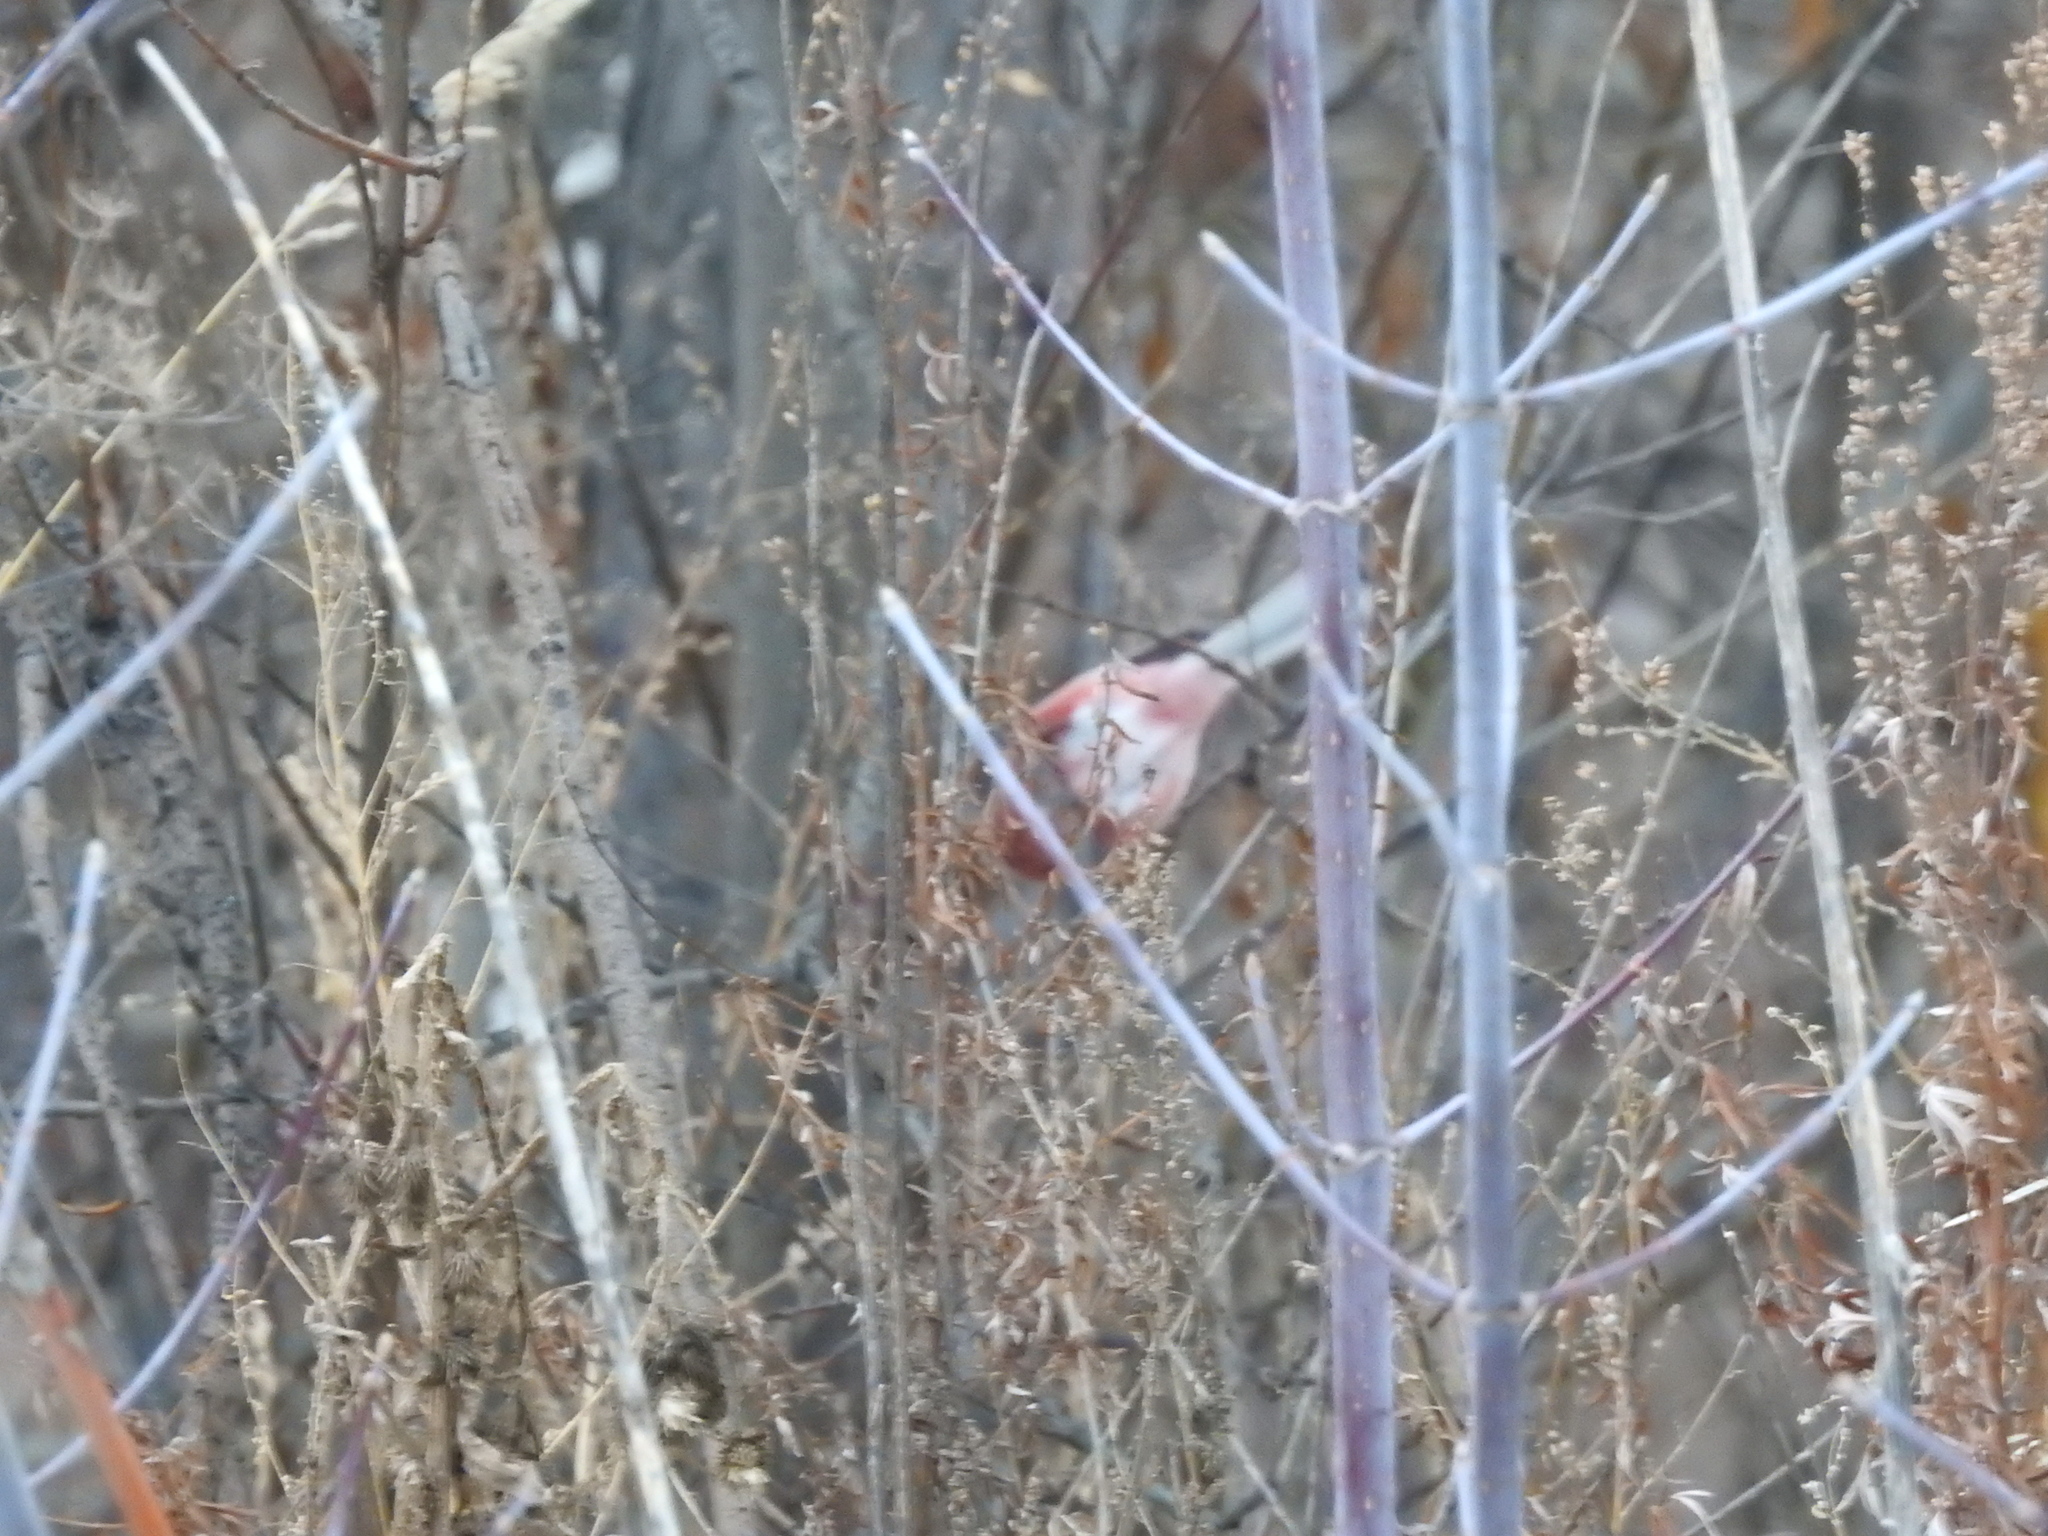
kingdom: Animalia
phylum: Chordata
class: Aves
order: Passeriformes
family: Fringillidae
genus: Carpodacus
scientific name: Carpodacus sibiricus
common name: Long-tailed rosefinch
